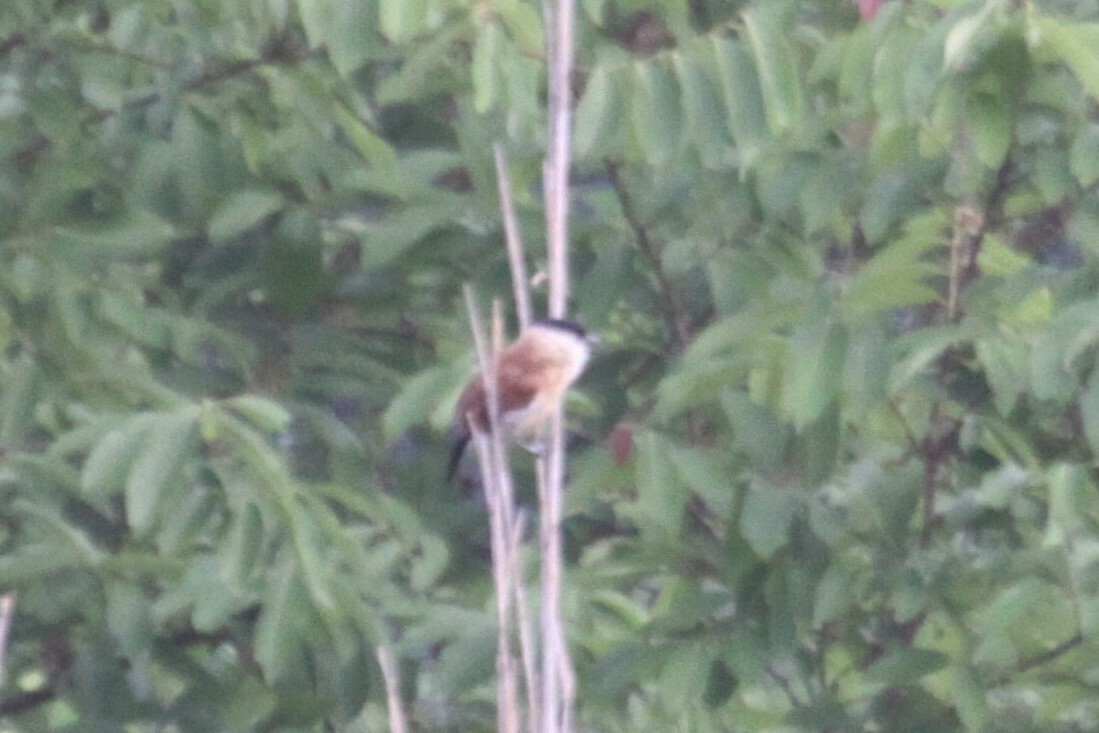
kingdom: Animalia
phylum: Chordata
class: Aves
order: Passeriformes
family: Malaconotidae
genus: Bocagia
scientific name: Bocagia minuta
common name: Marsh tchagra
